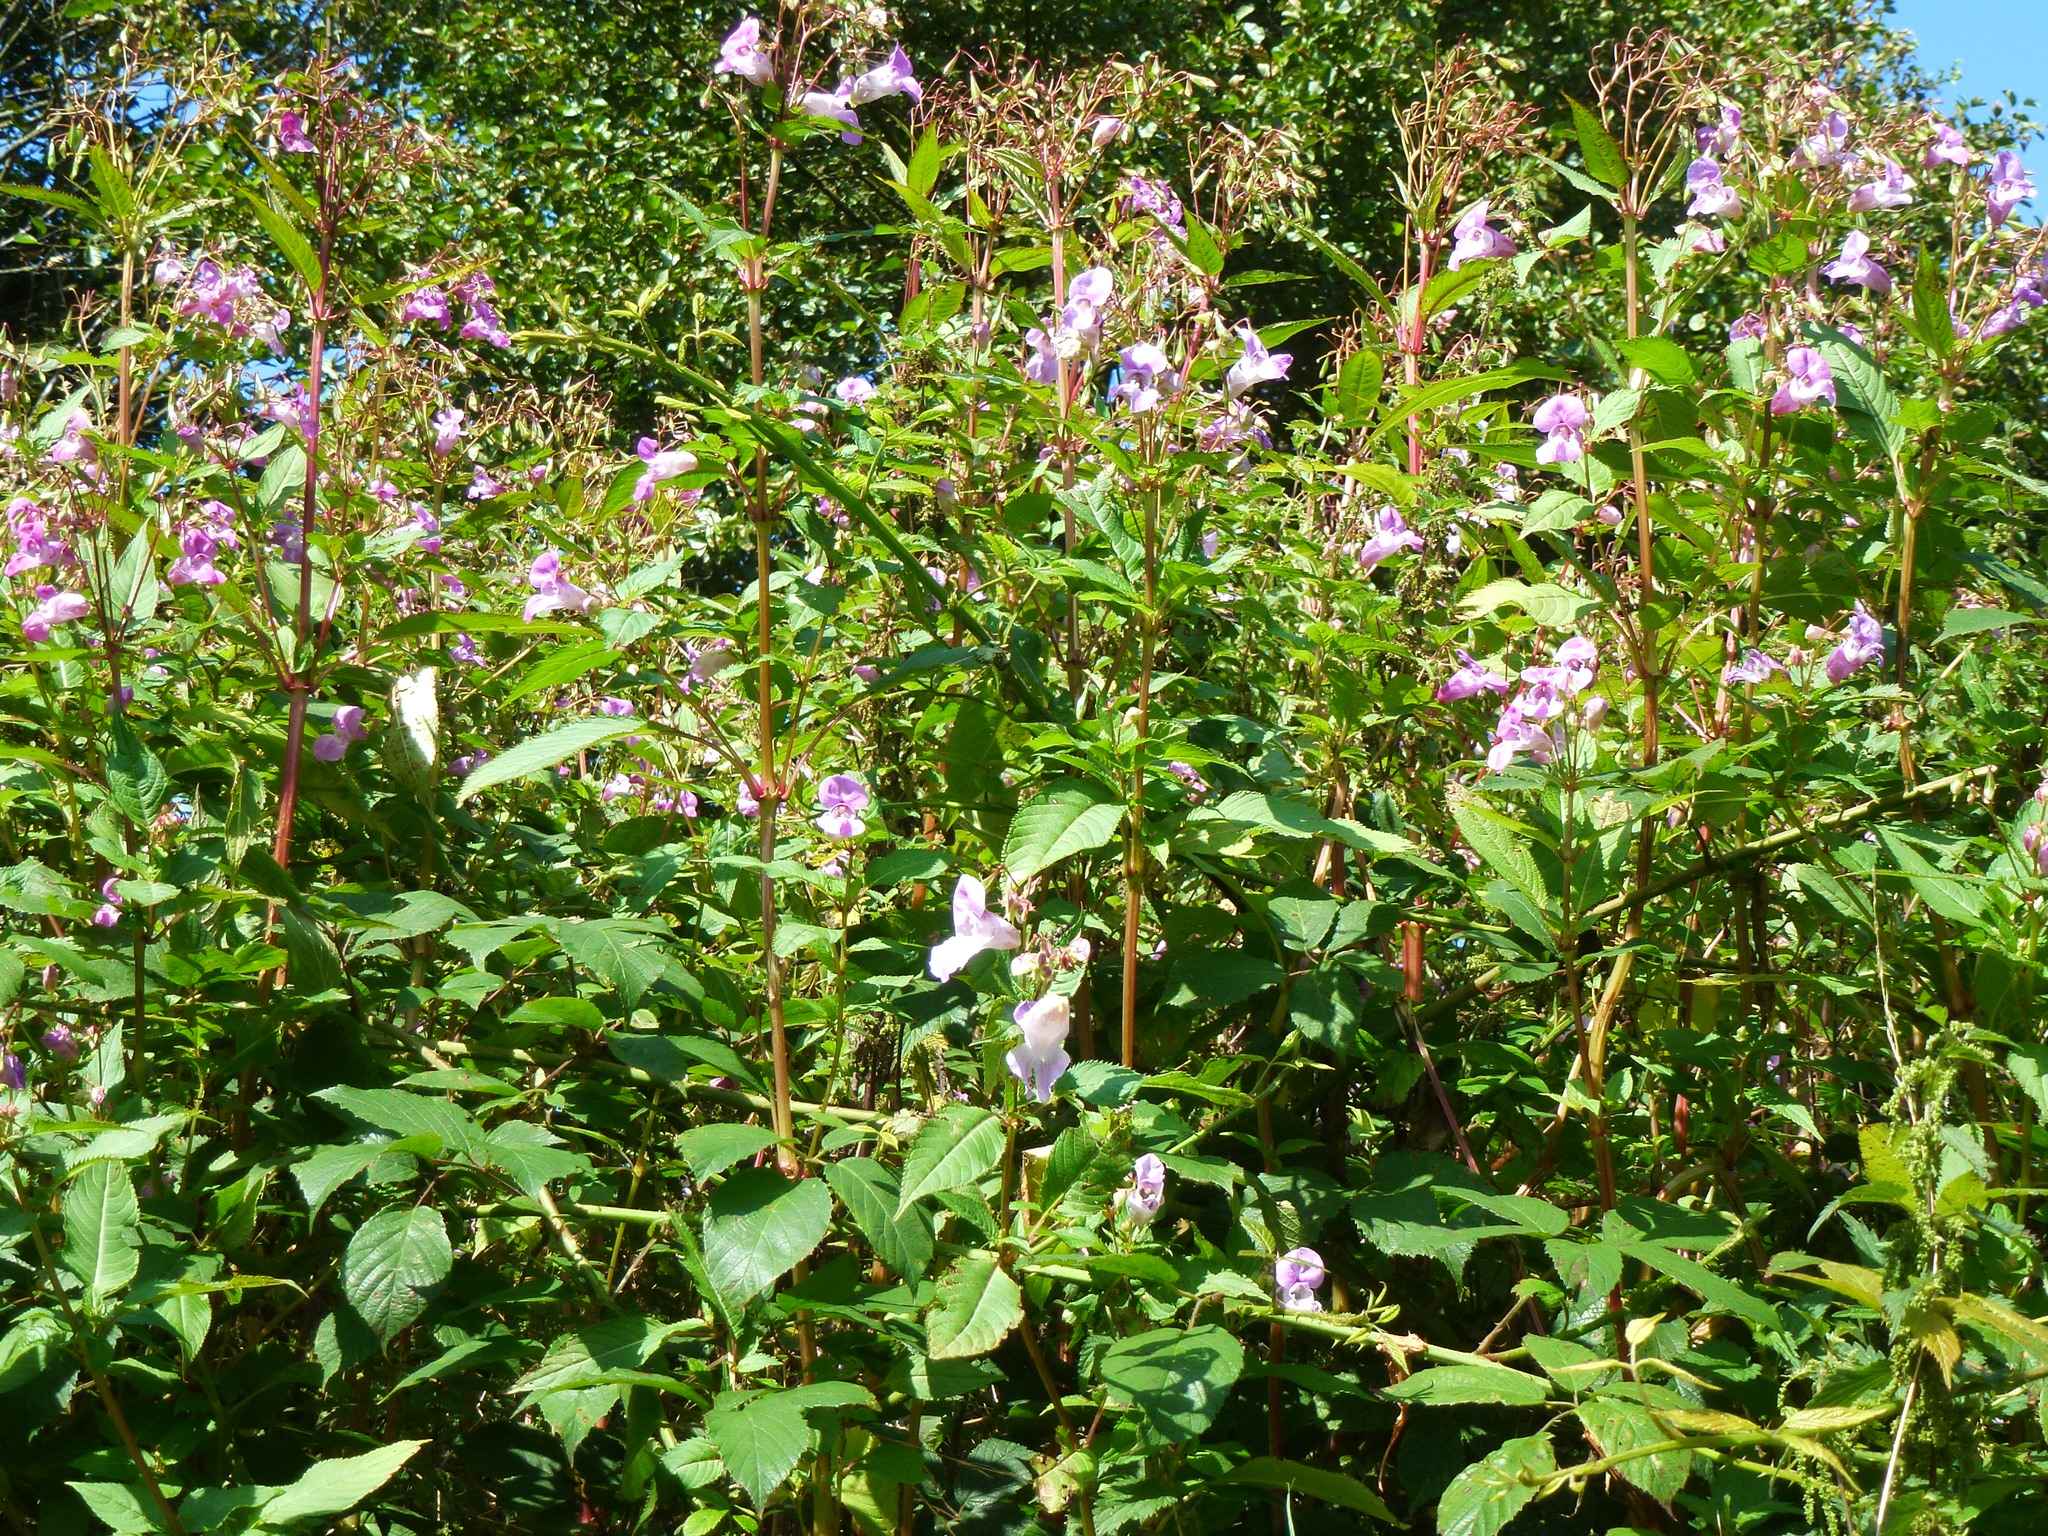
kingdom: Plantae
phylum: Tracheophyta
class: Magnoliopsida
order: Ericales
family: Balsaminaceae
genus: Impatiens
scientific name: Impatiens glandulifera
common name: Himalayan balsam
